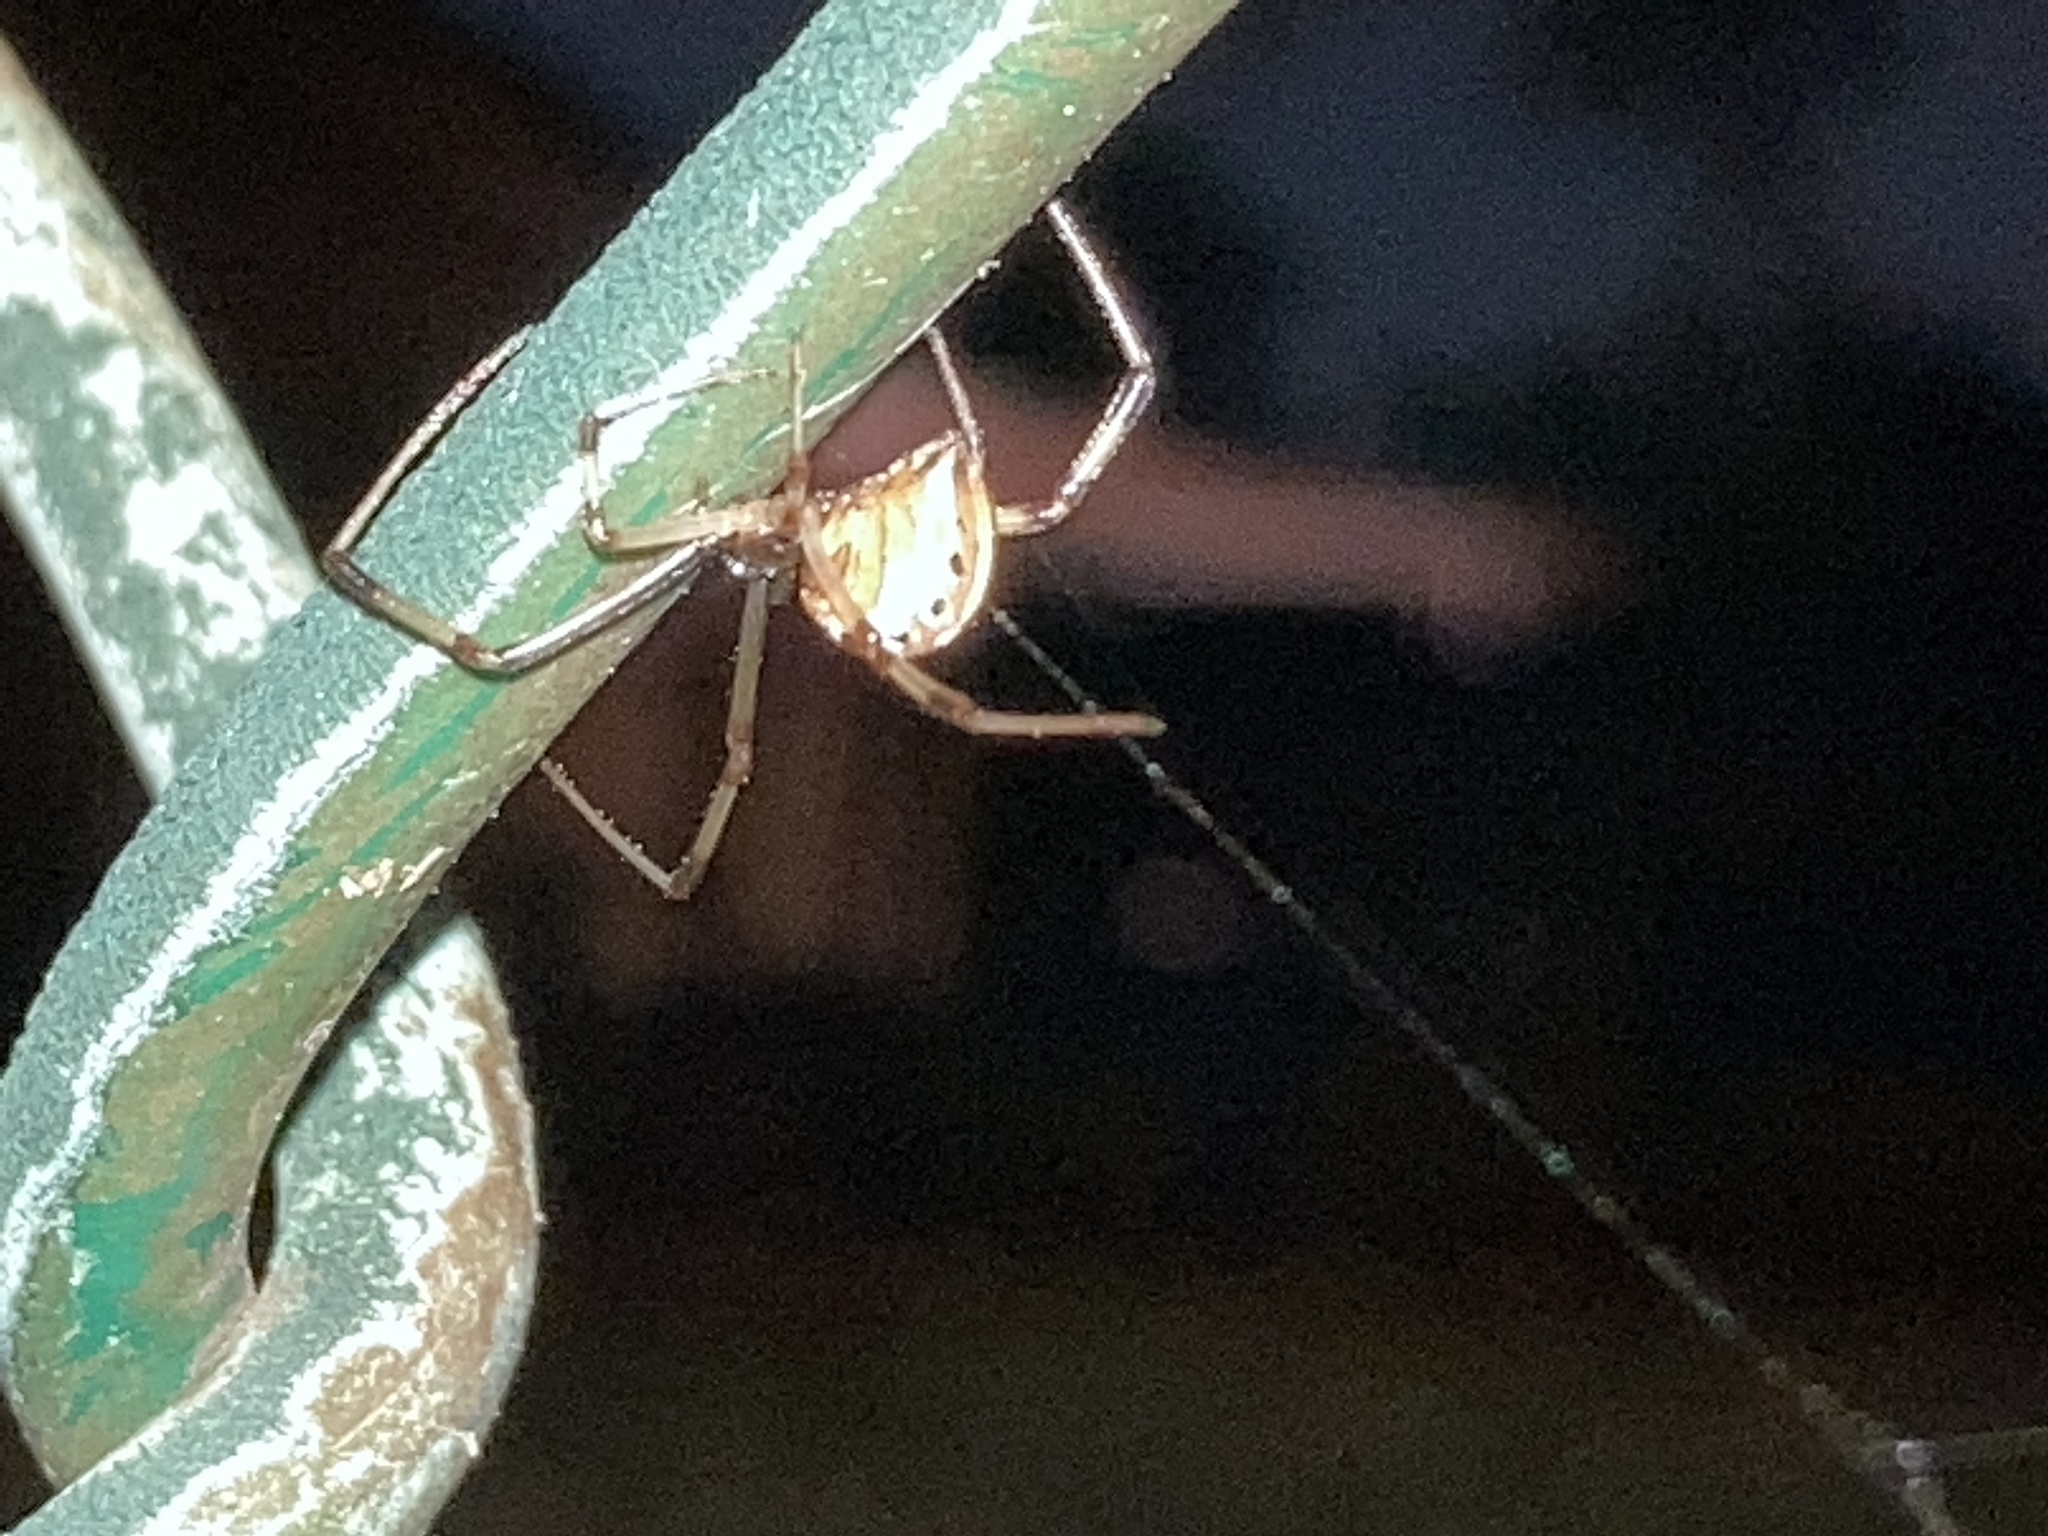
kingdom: Animalia
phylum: Arthropoda
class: Arachnida
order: Araneae
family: Theridiidae
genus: Latrodectus
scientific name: Latrodectus geometricus
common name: Brown widow spider
